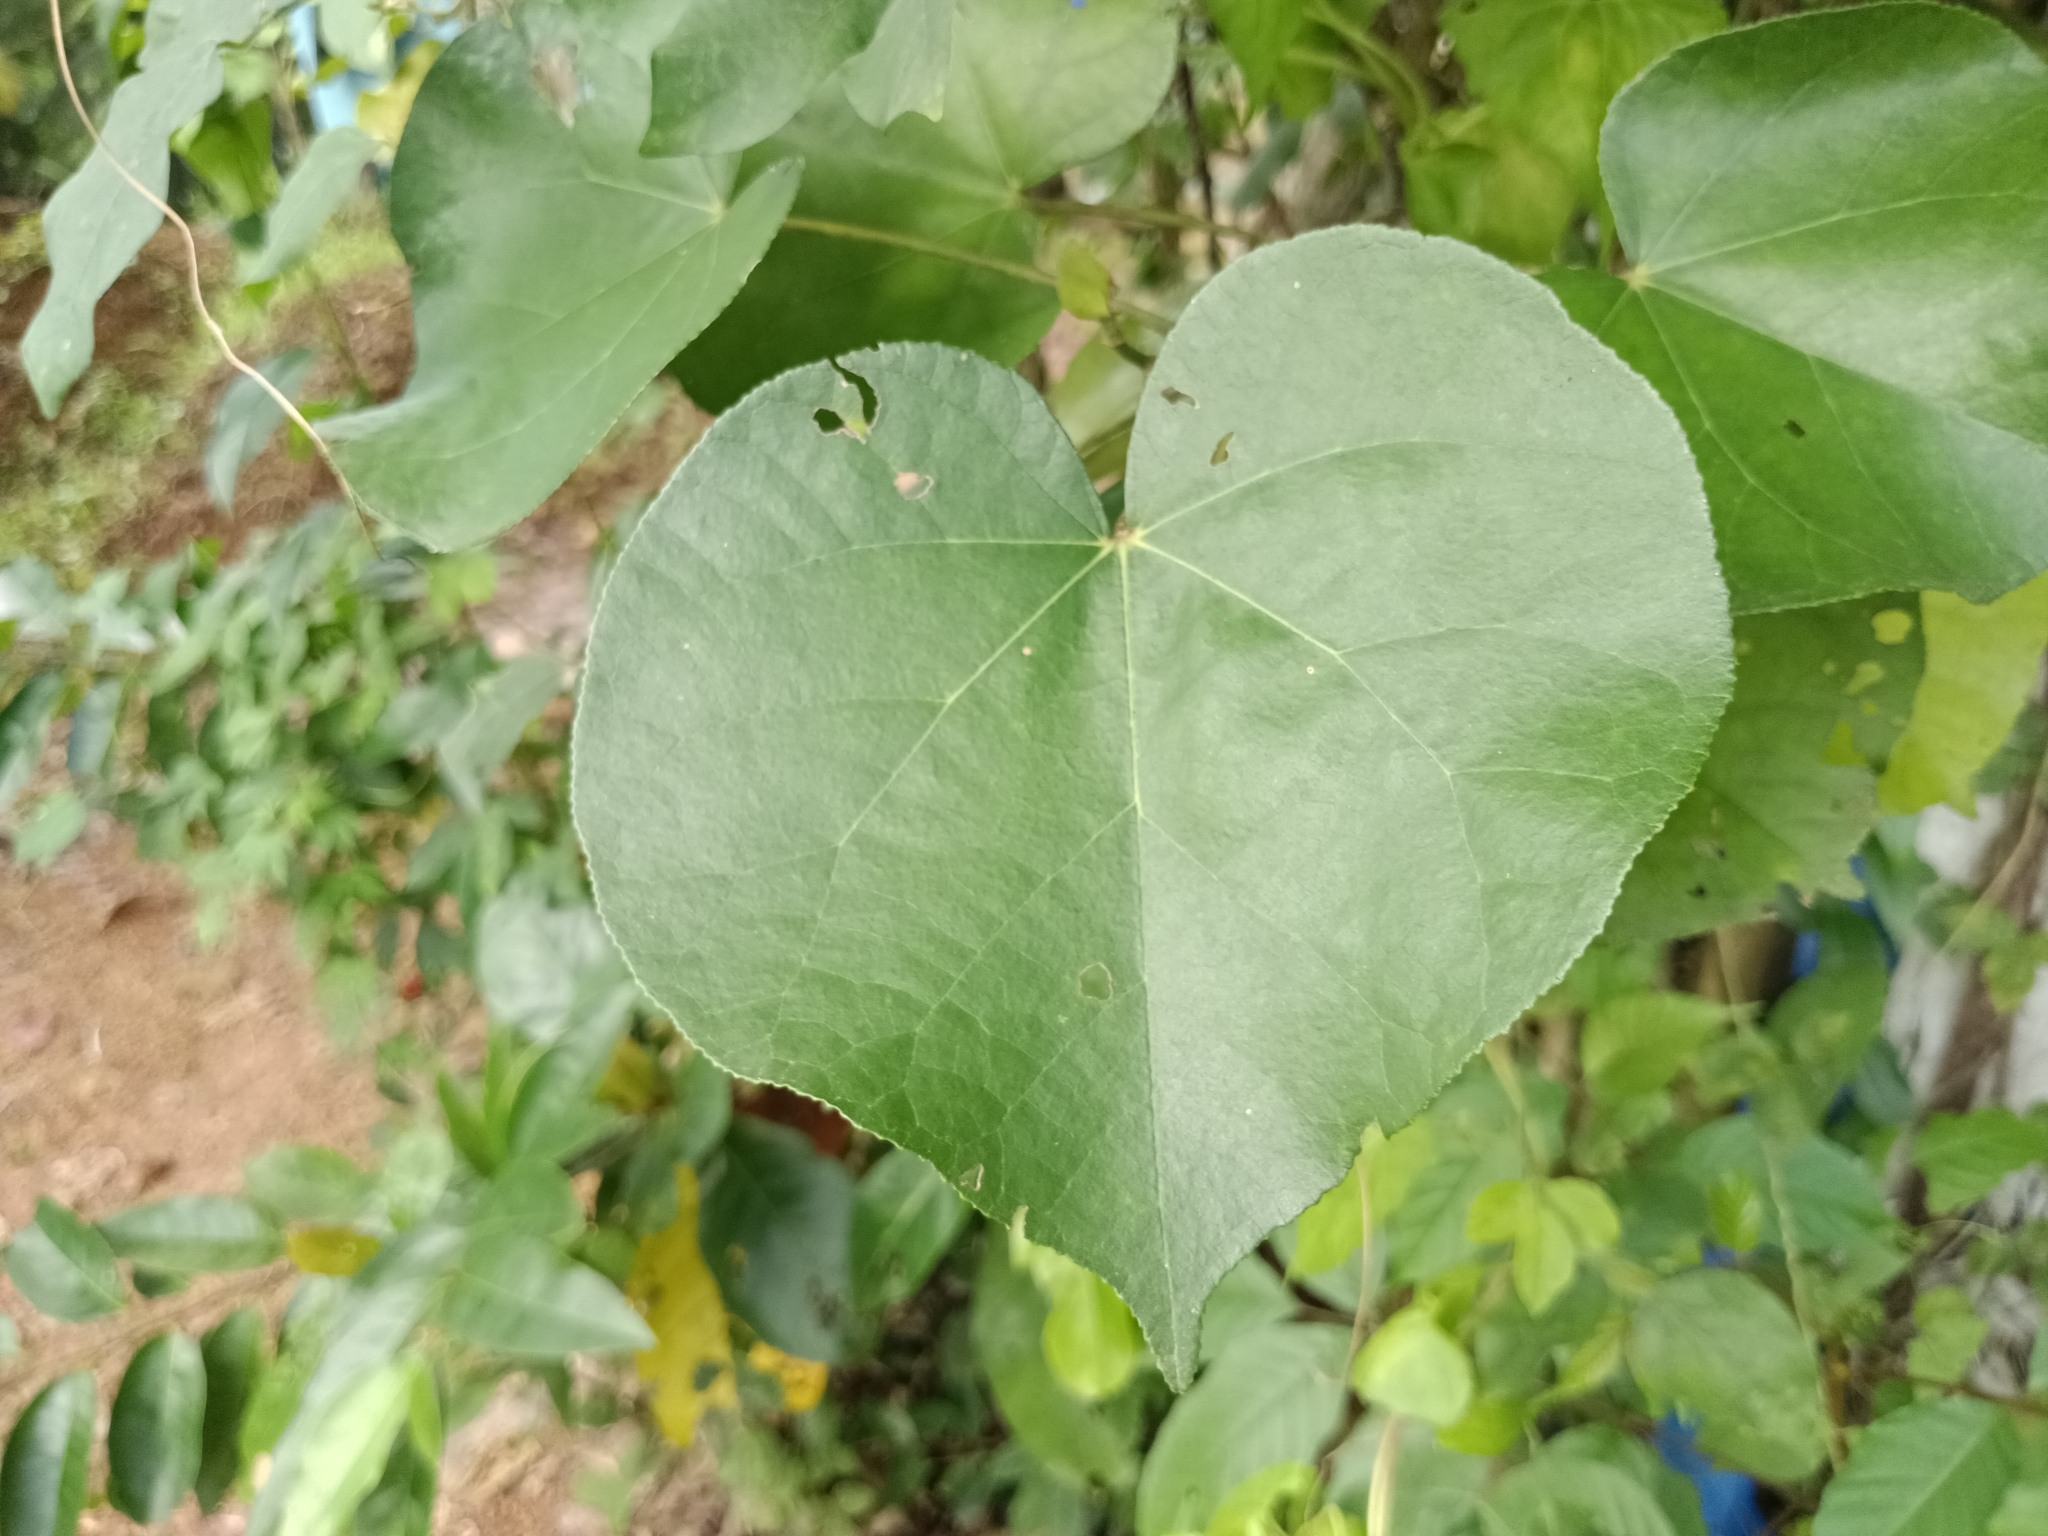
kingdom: Plantae
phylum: Tracheophyta
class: Magnoliopsida
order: Malvales
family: Malvaceae
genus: Talipariti
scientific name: Talipariti tiliaceum
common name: Sea hibiscus
